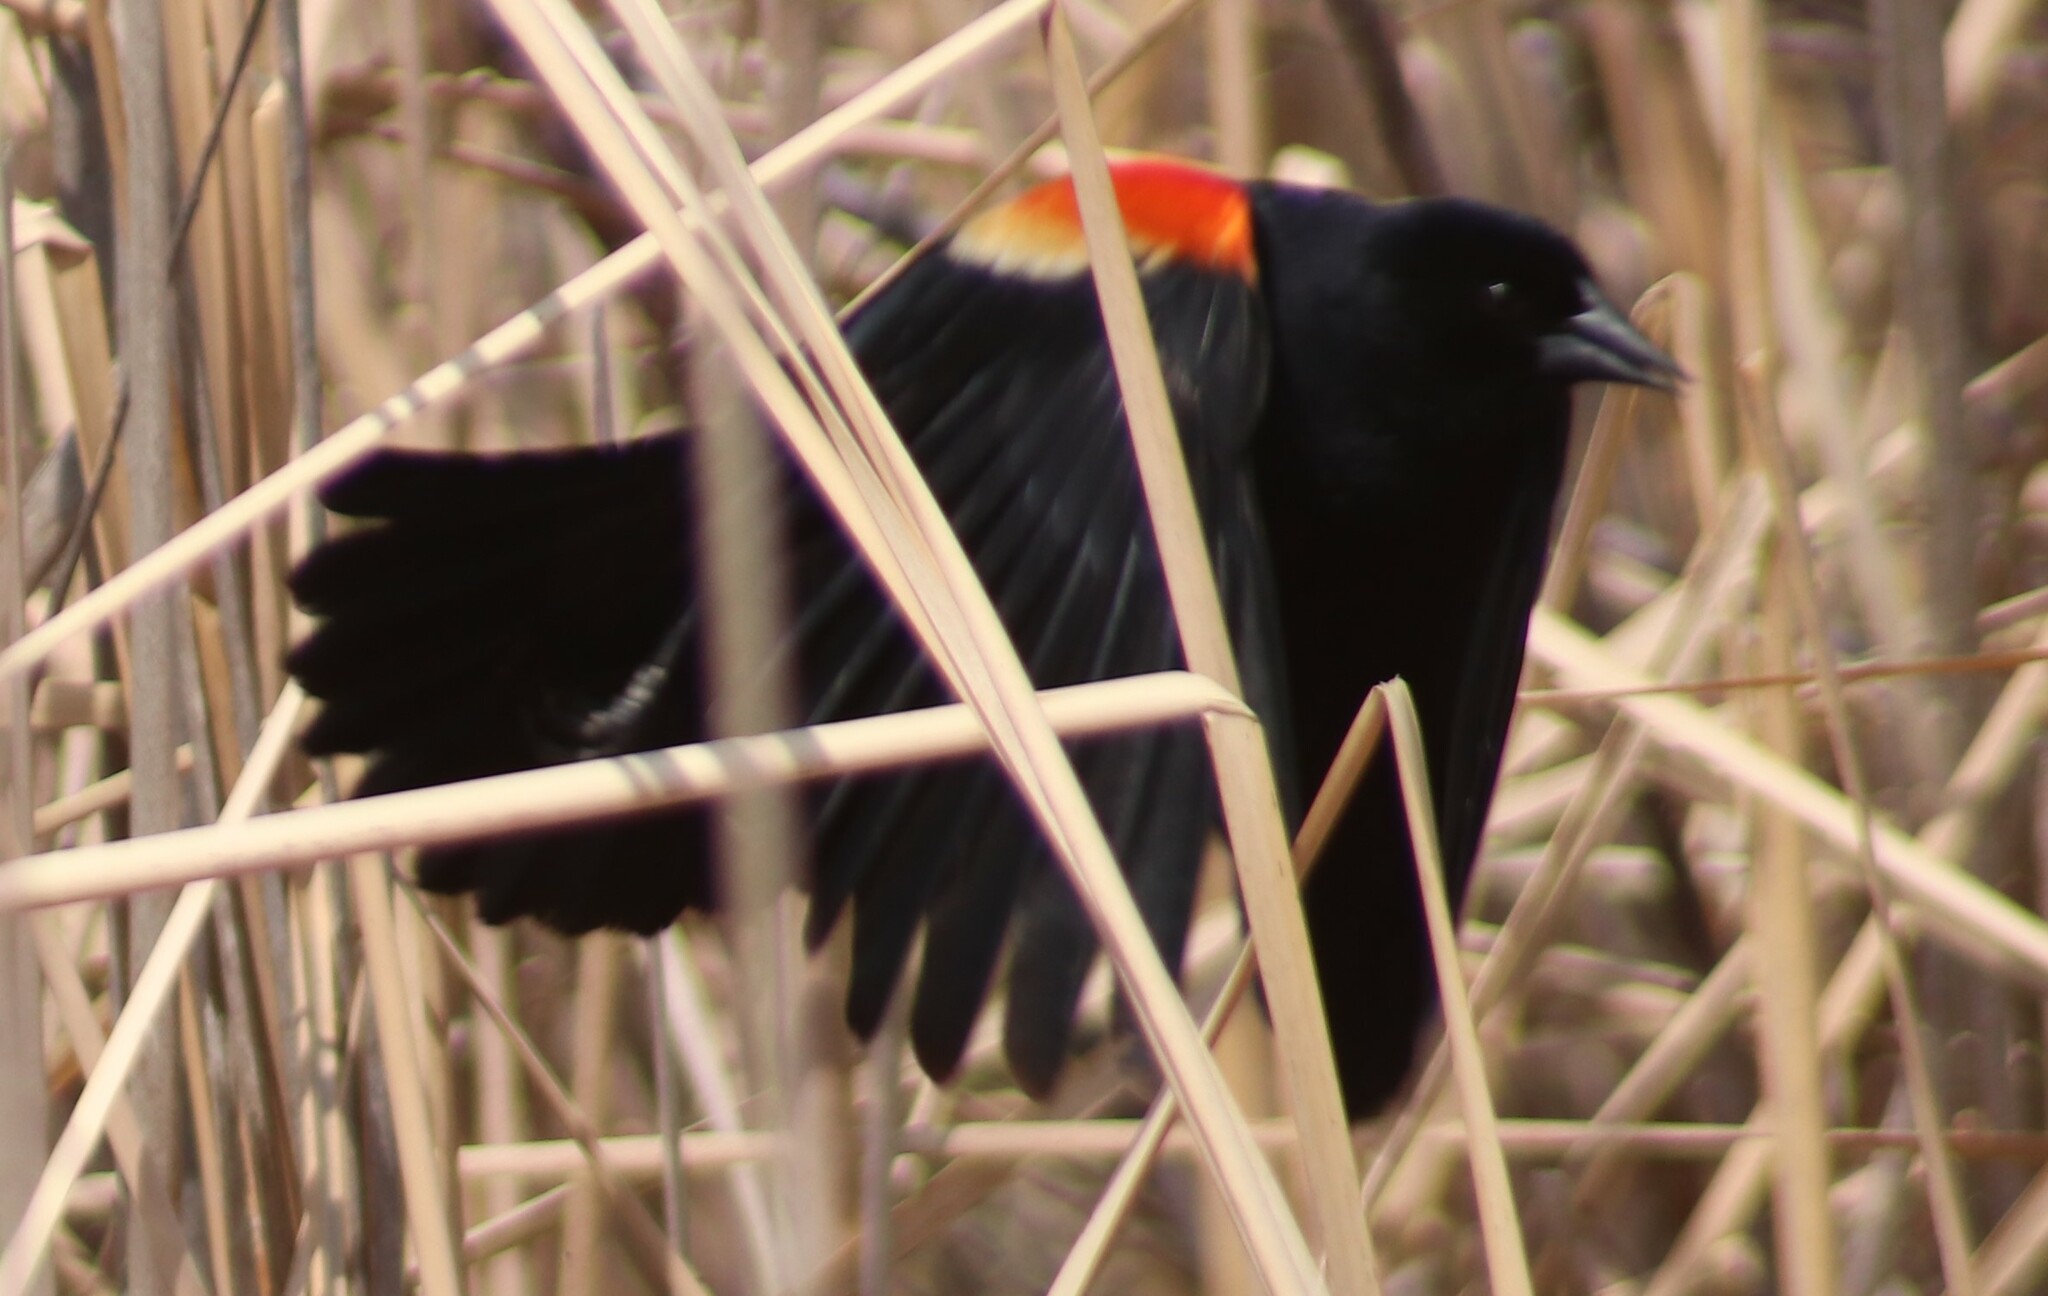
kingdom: Animalia
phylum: Chordata
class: Aves
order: Passeriformes
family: Icteridae
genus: Agelaius
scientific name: Agelaius phoeniceus
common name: Red-winged blackbird
